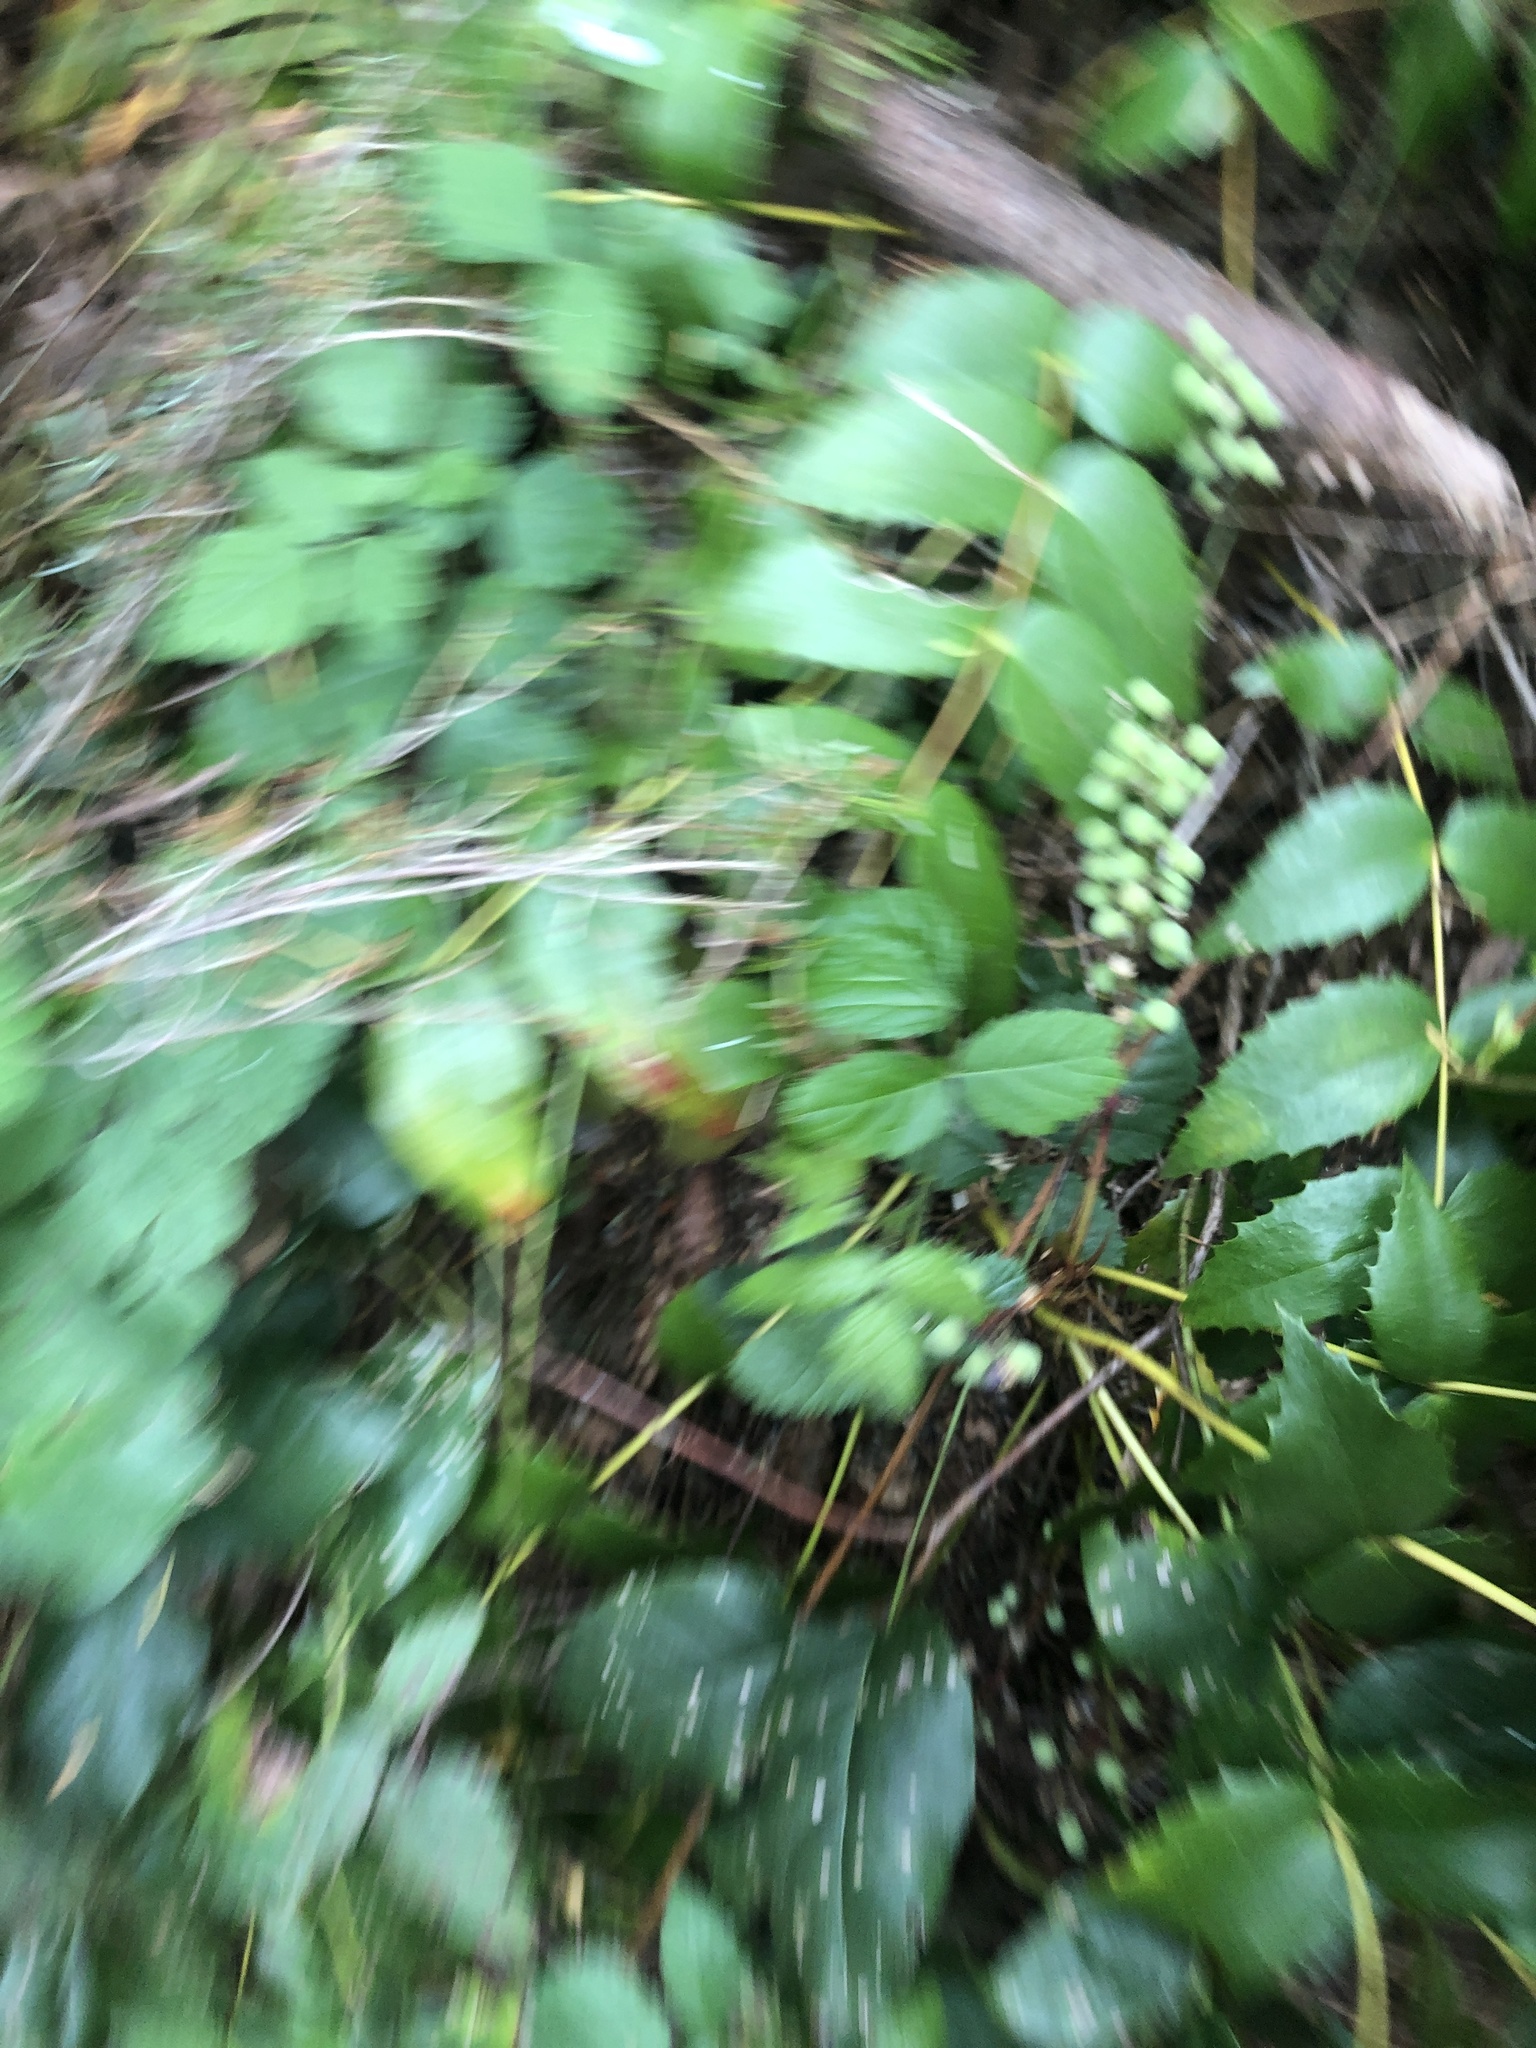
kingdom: Plantae
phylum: Tracheophyta
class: Magnoliopsida
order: Ranunculales
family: Berberidaceae
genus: Mahonia
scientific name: Mahonia nervosa
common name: Cascade oregon-grape
